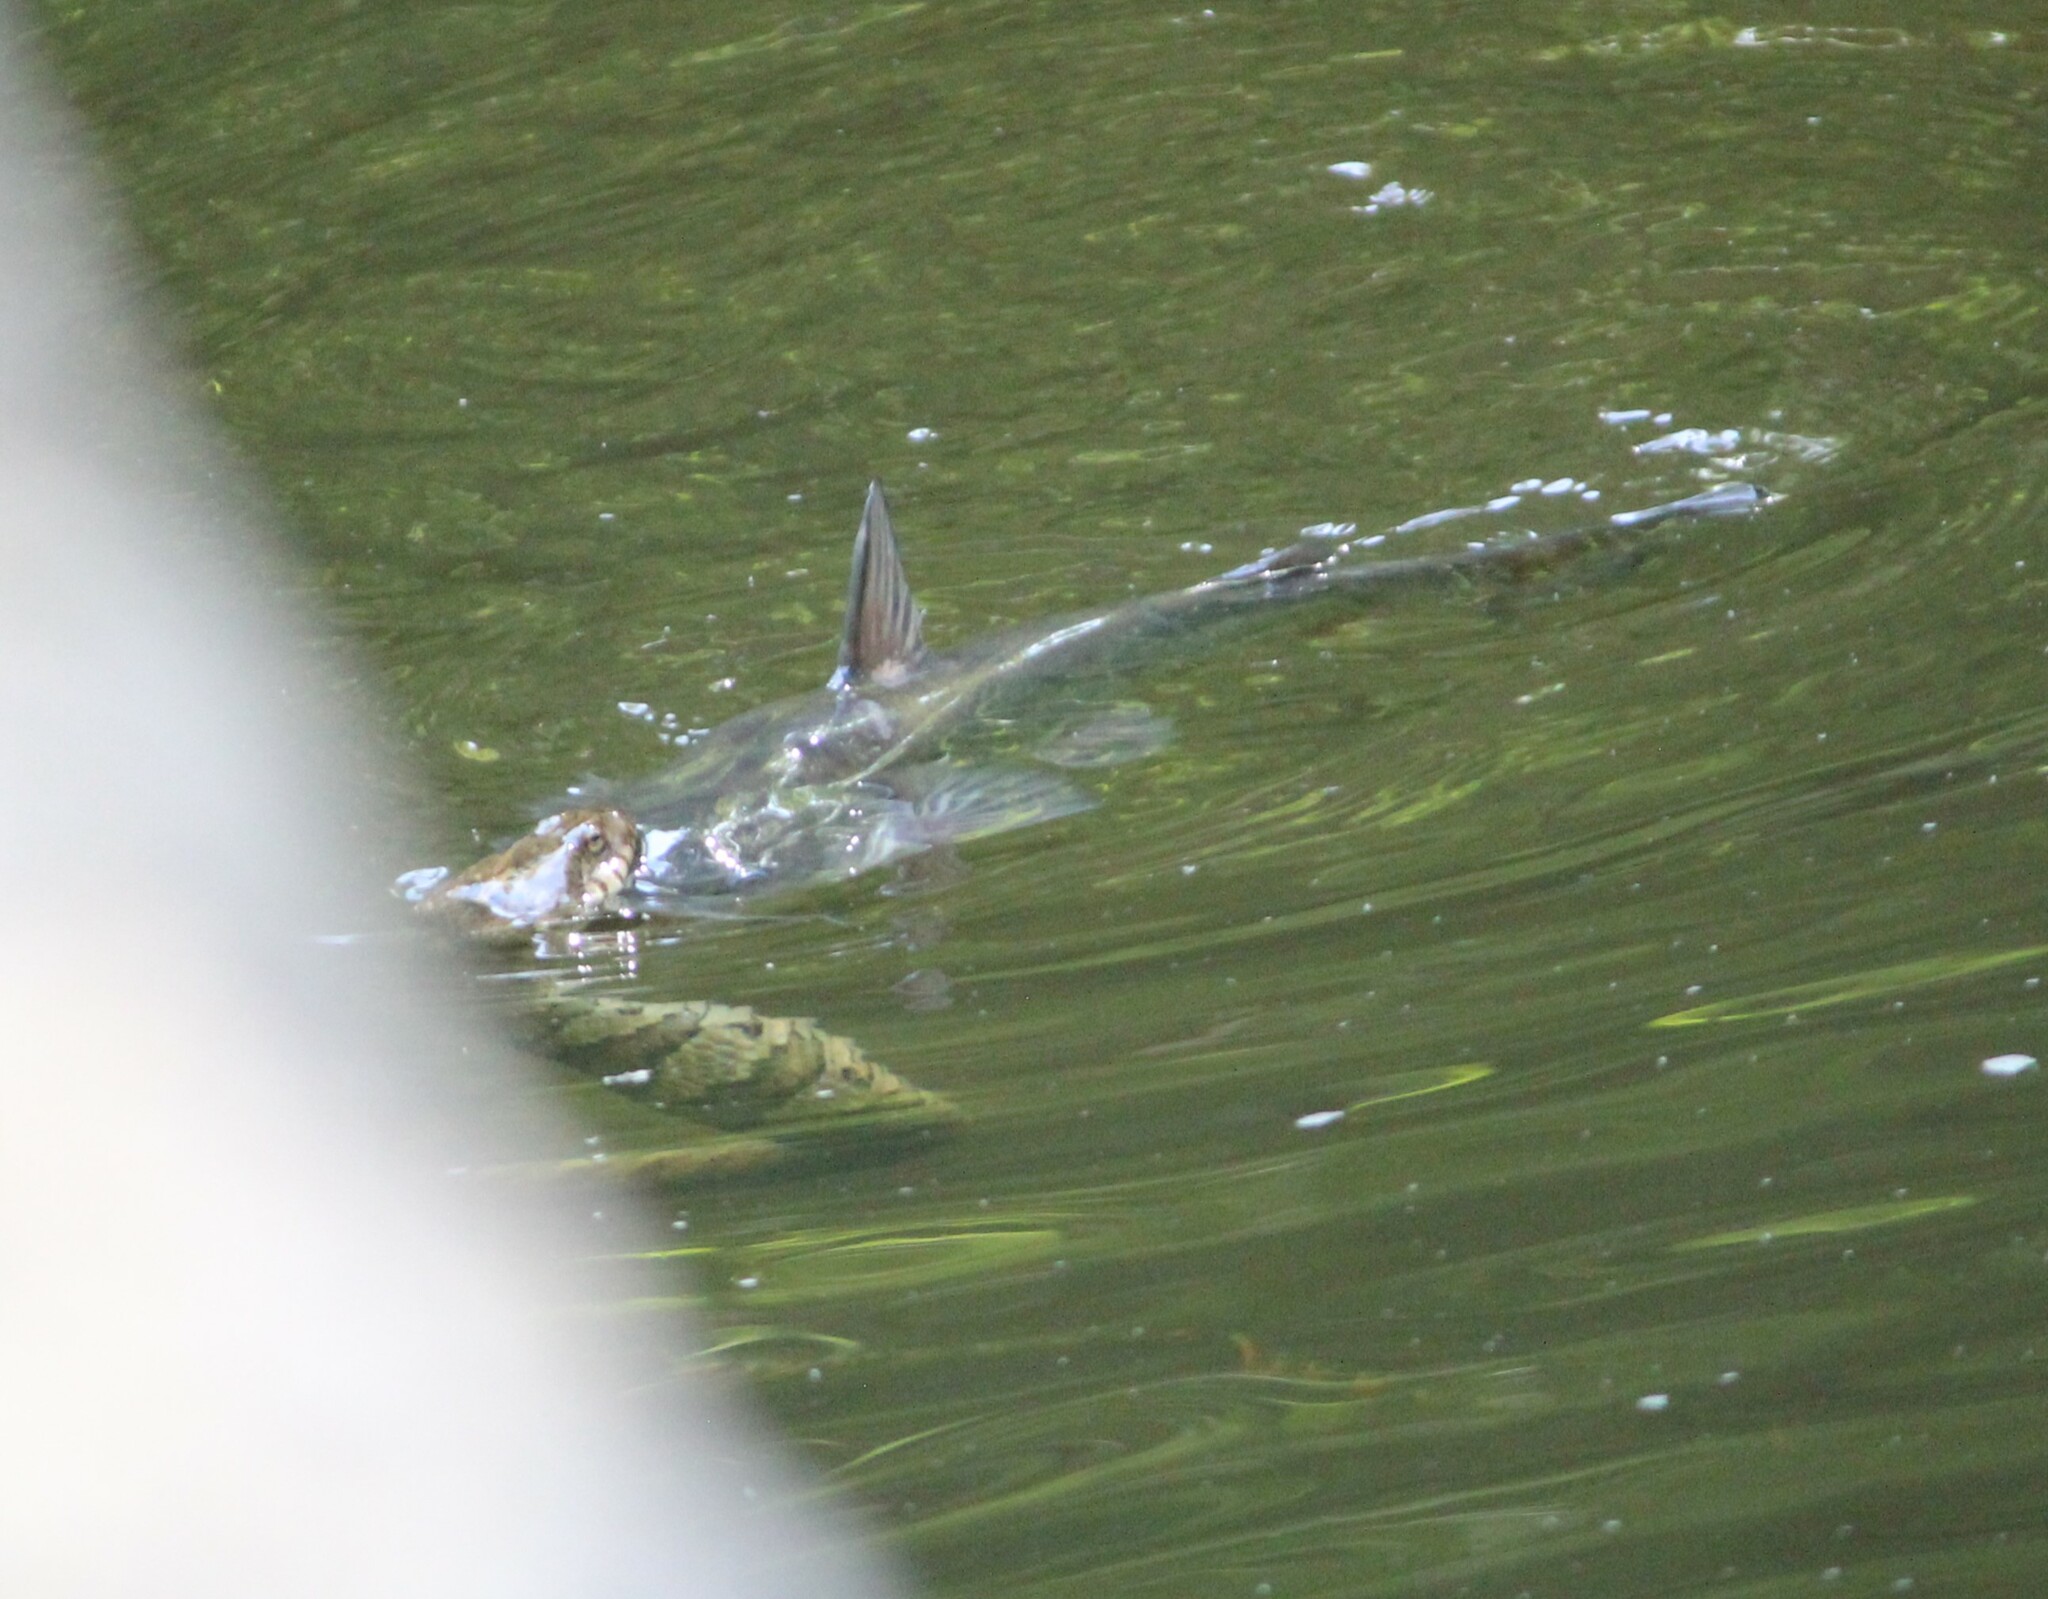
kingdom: Animalia
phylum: Chordata
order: Siluriformes
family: Ictaluridae
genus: Ameiurus
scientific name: Ameiurus catus
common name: White catfish
